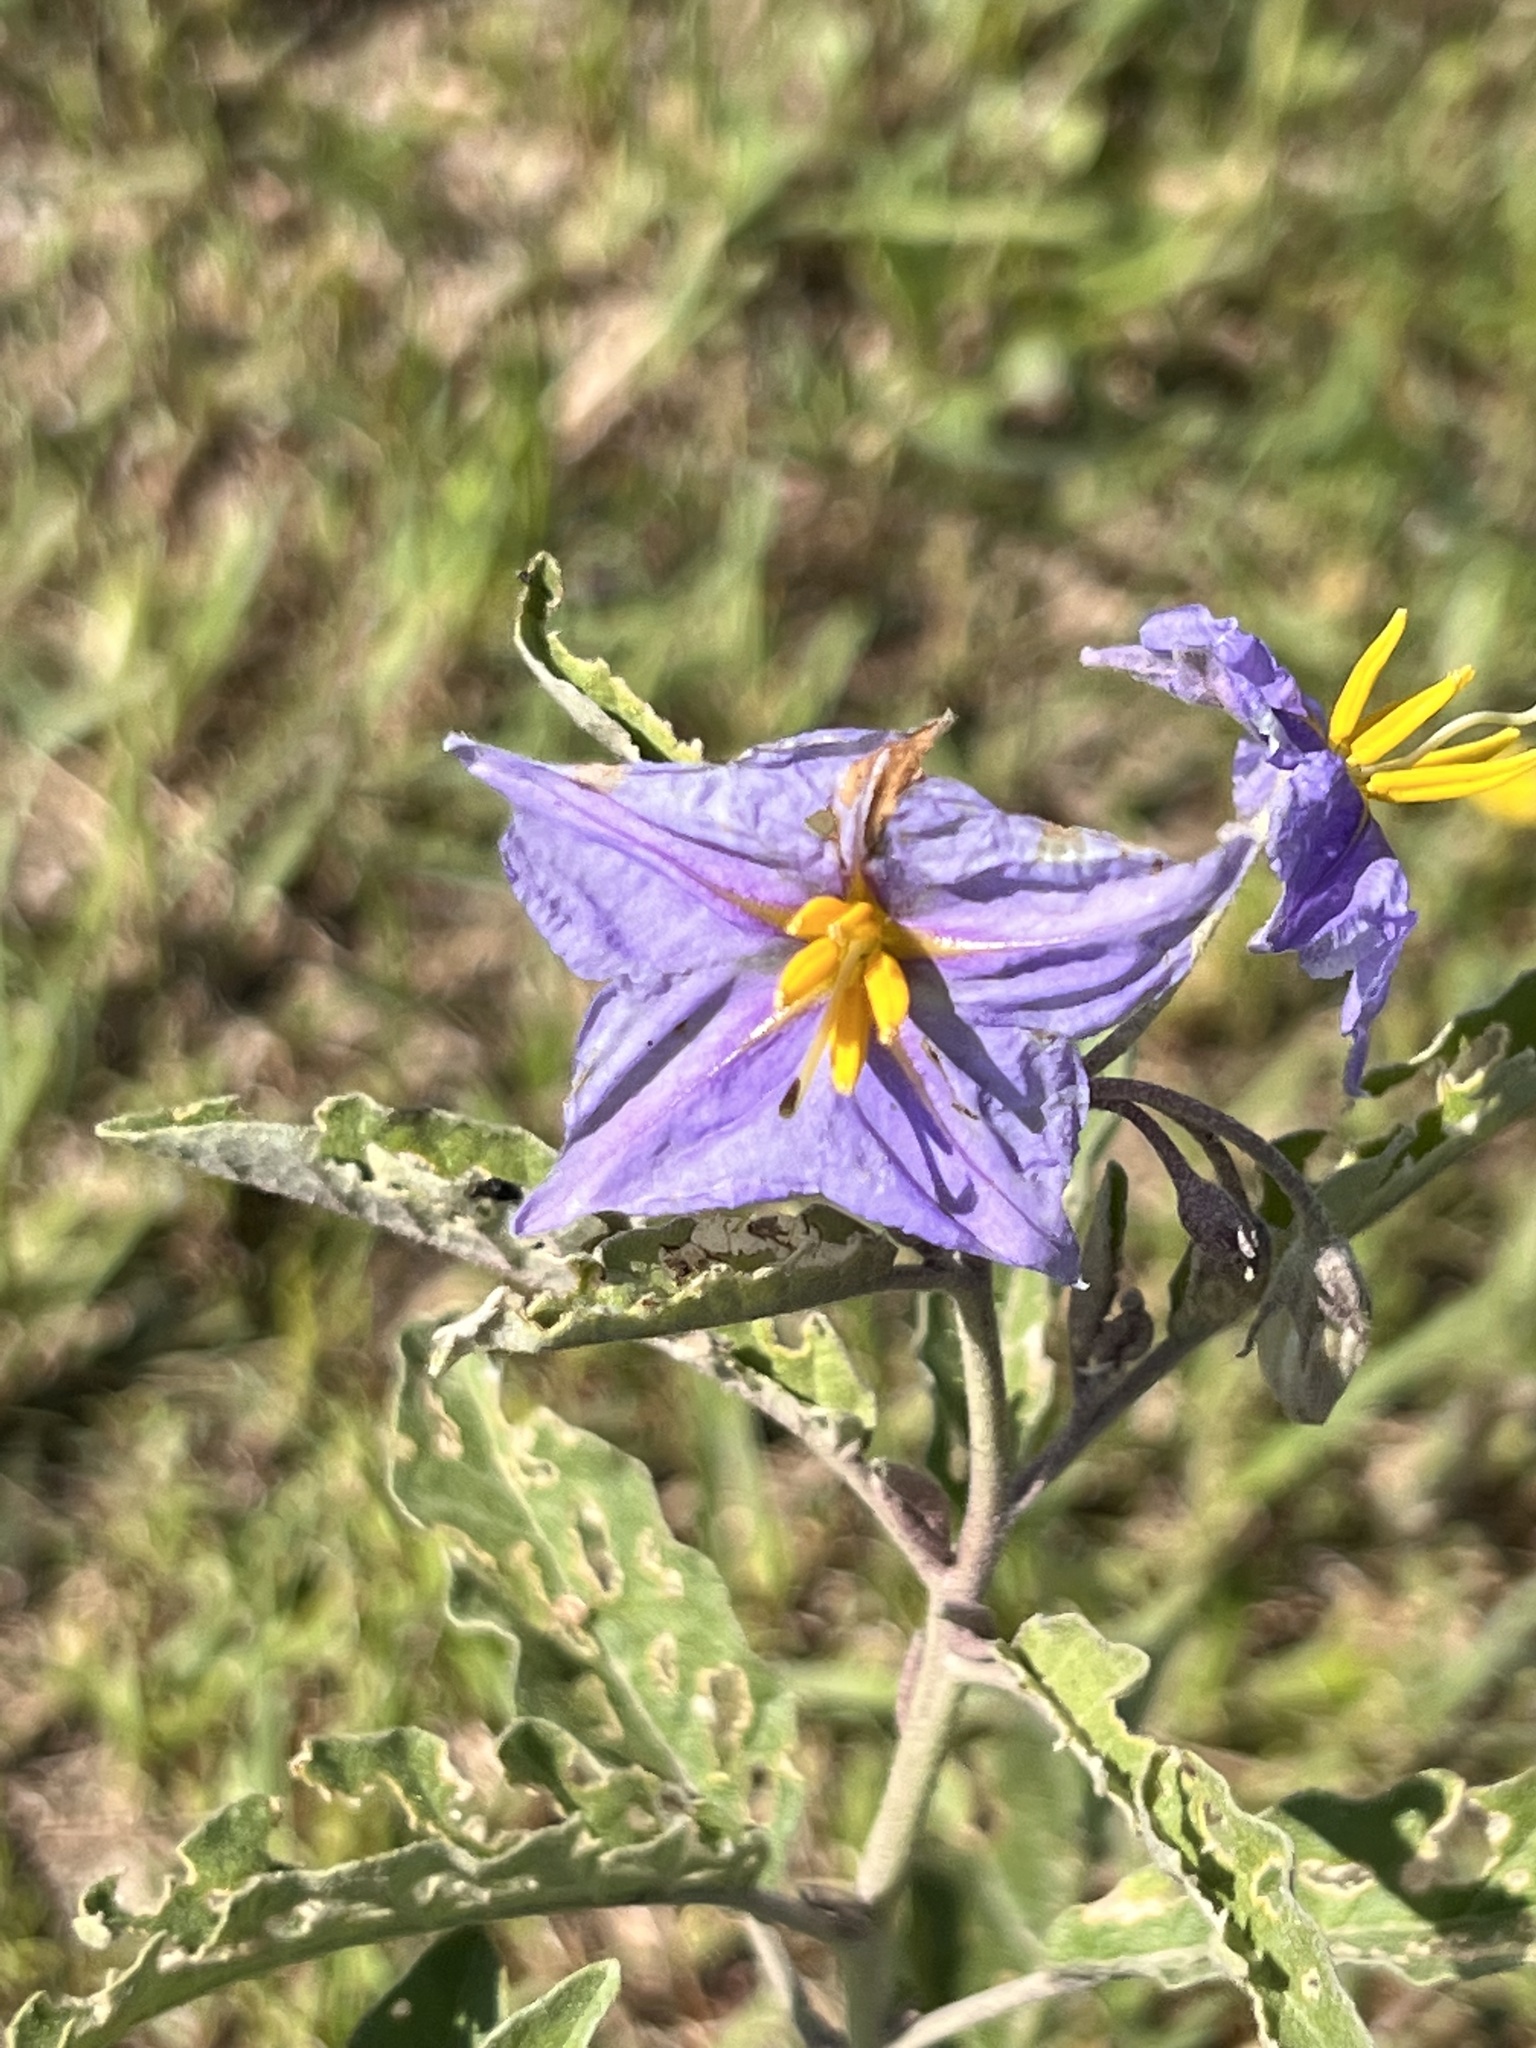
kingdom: Plantae
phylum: Tracheophyta
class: Magnoliopsida
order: Solanales
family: Solanaceae
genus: Solanum
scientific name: Solanum elaeagnifolium
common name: Silverleaf nightshade
